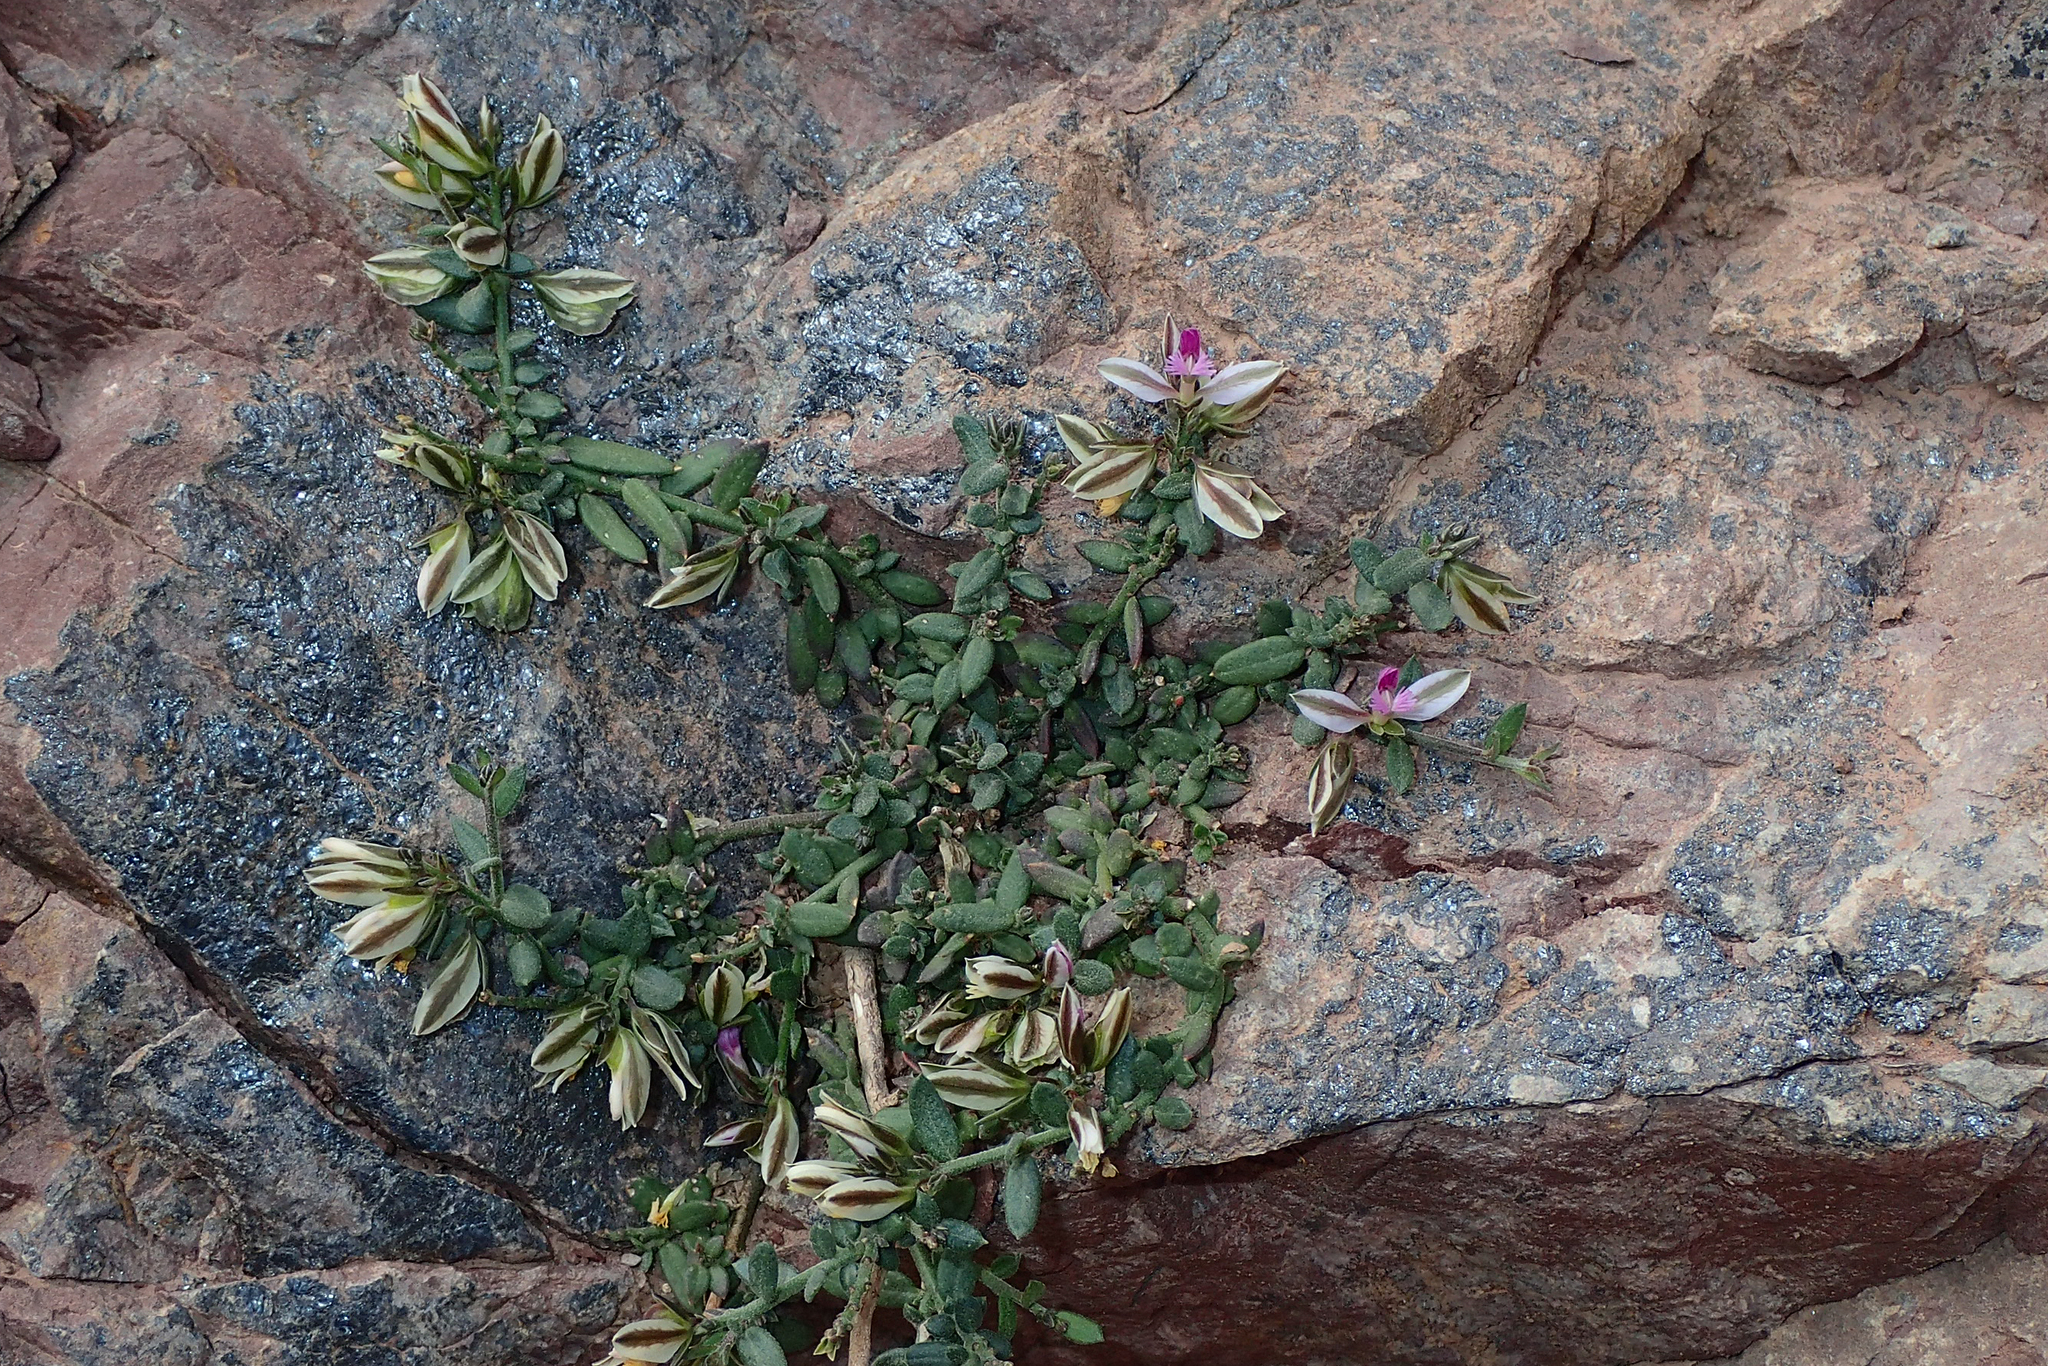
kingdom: Plantae
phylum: Tracheophyta
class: Magnoliopsida
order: Fabales
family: Polygalaceae
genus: Polygala
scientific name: Polygala rupestris
